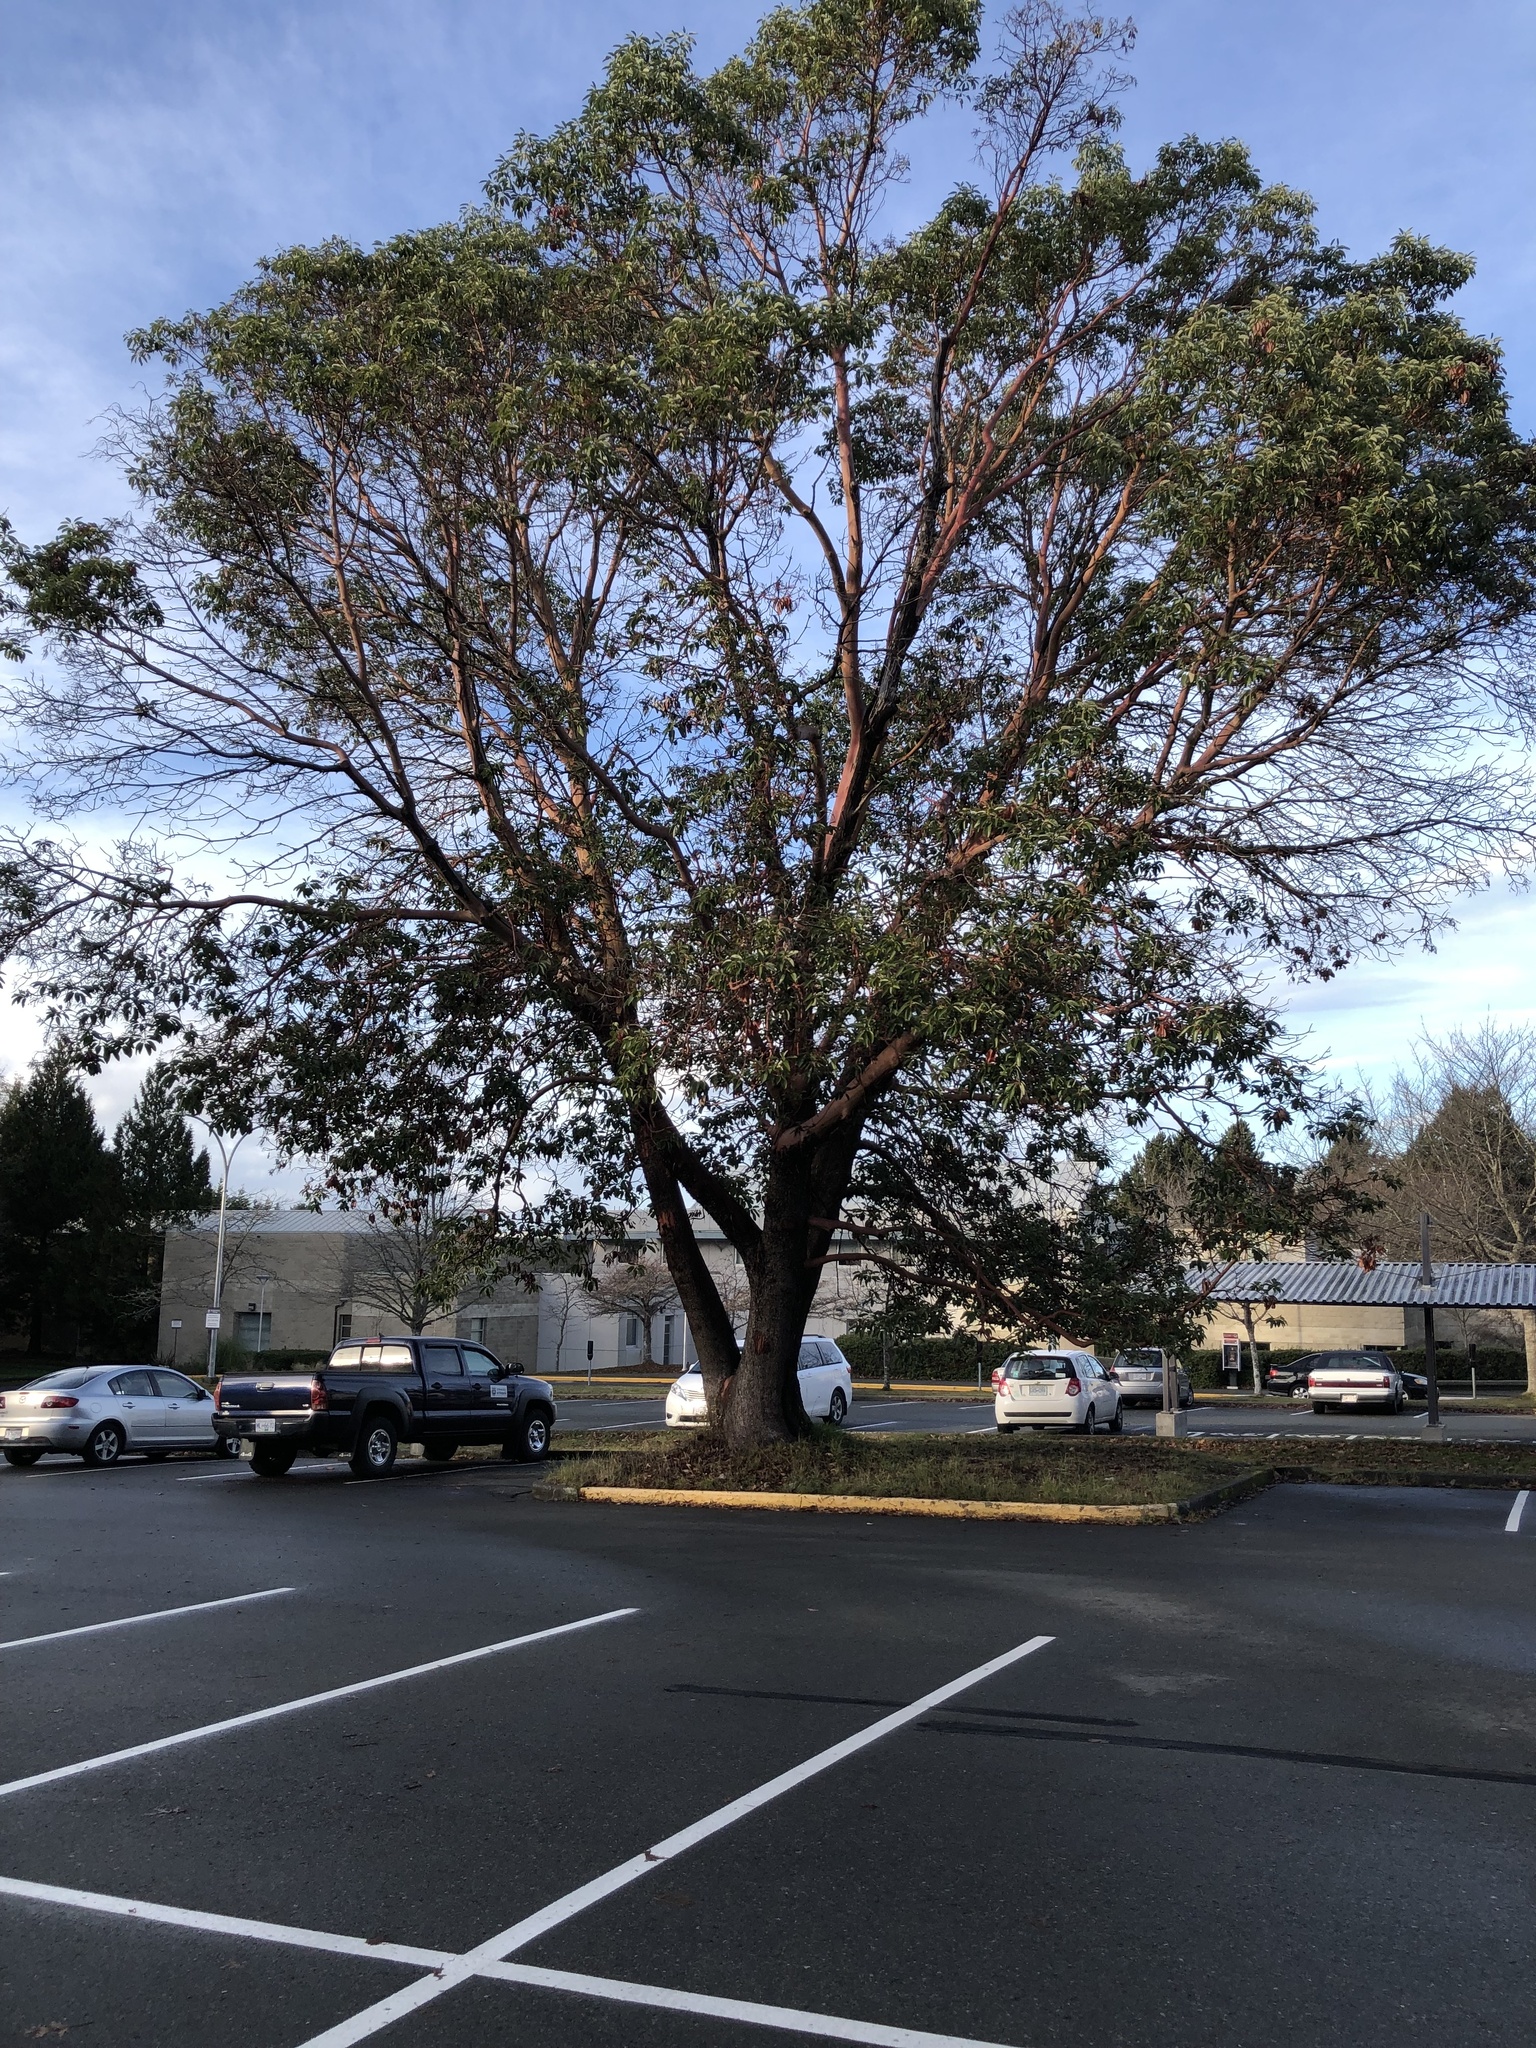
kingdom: Plantae
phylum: Tracheophyta
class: Magnoliopsida
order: Ericales
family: Ericaceae
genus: Arbutus
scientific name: Arbutus menziesii
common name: Pacific madrone
